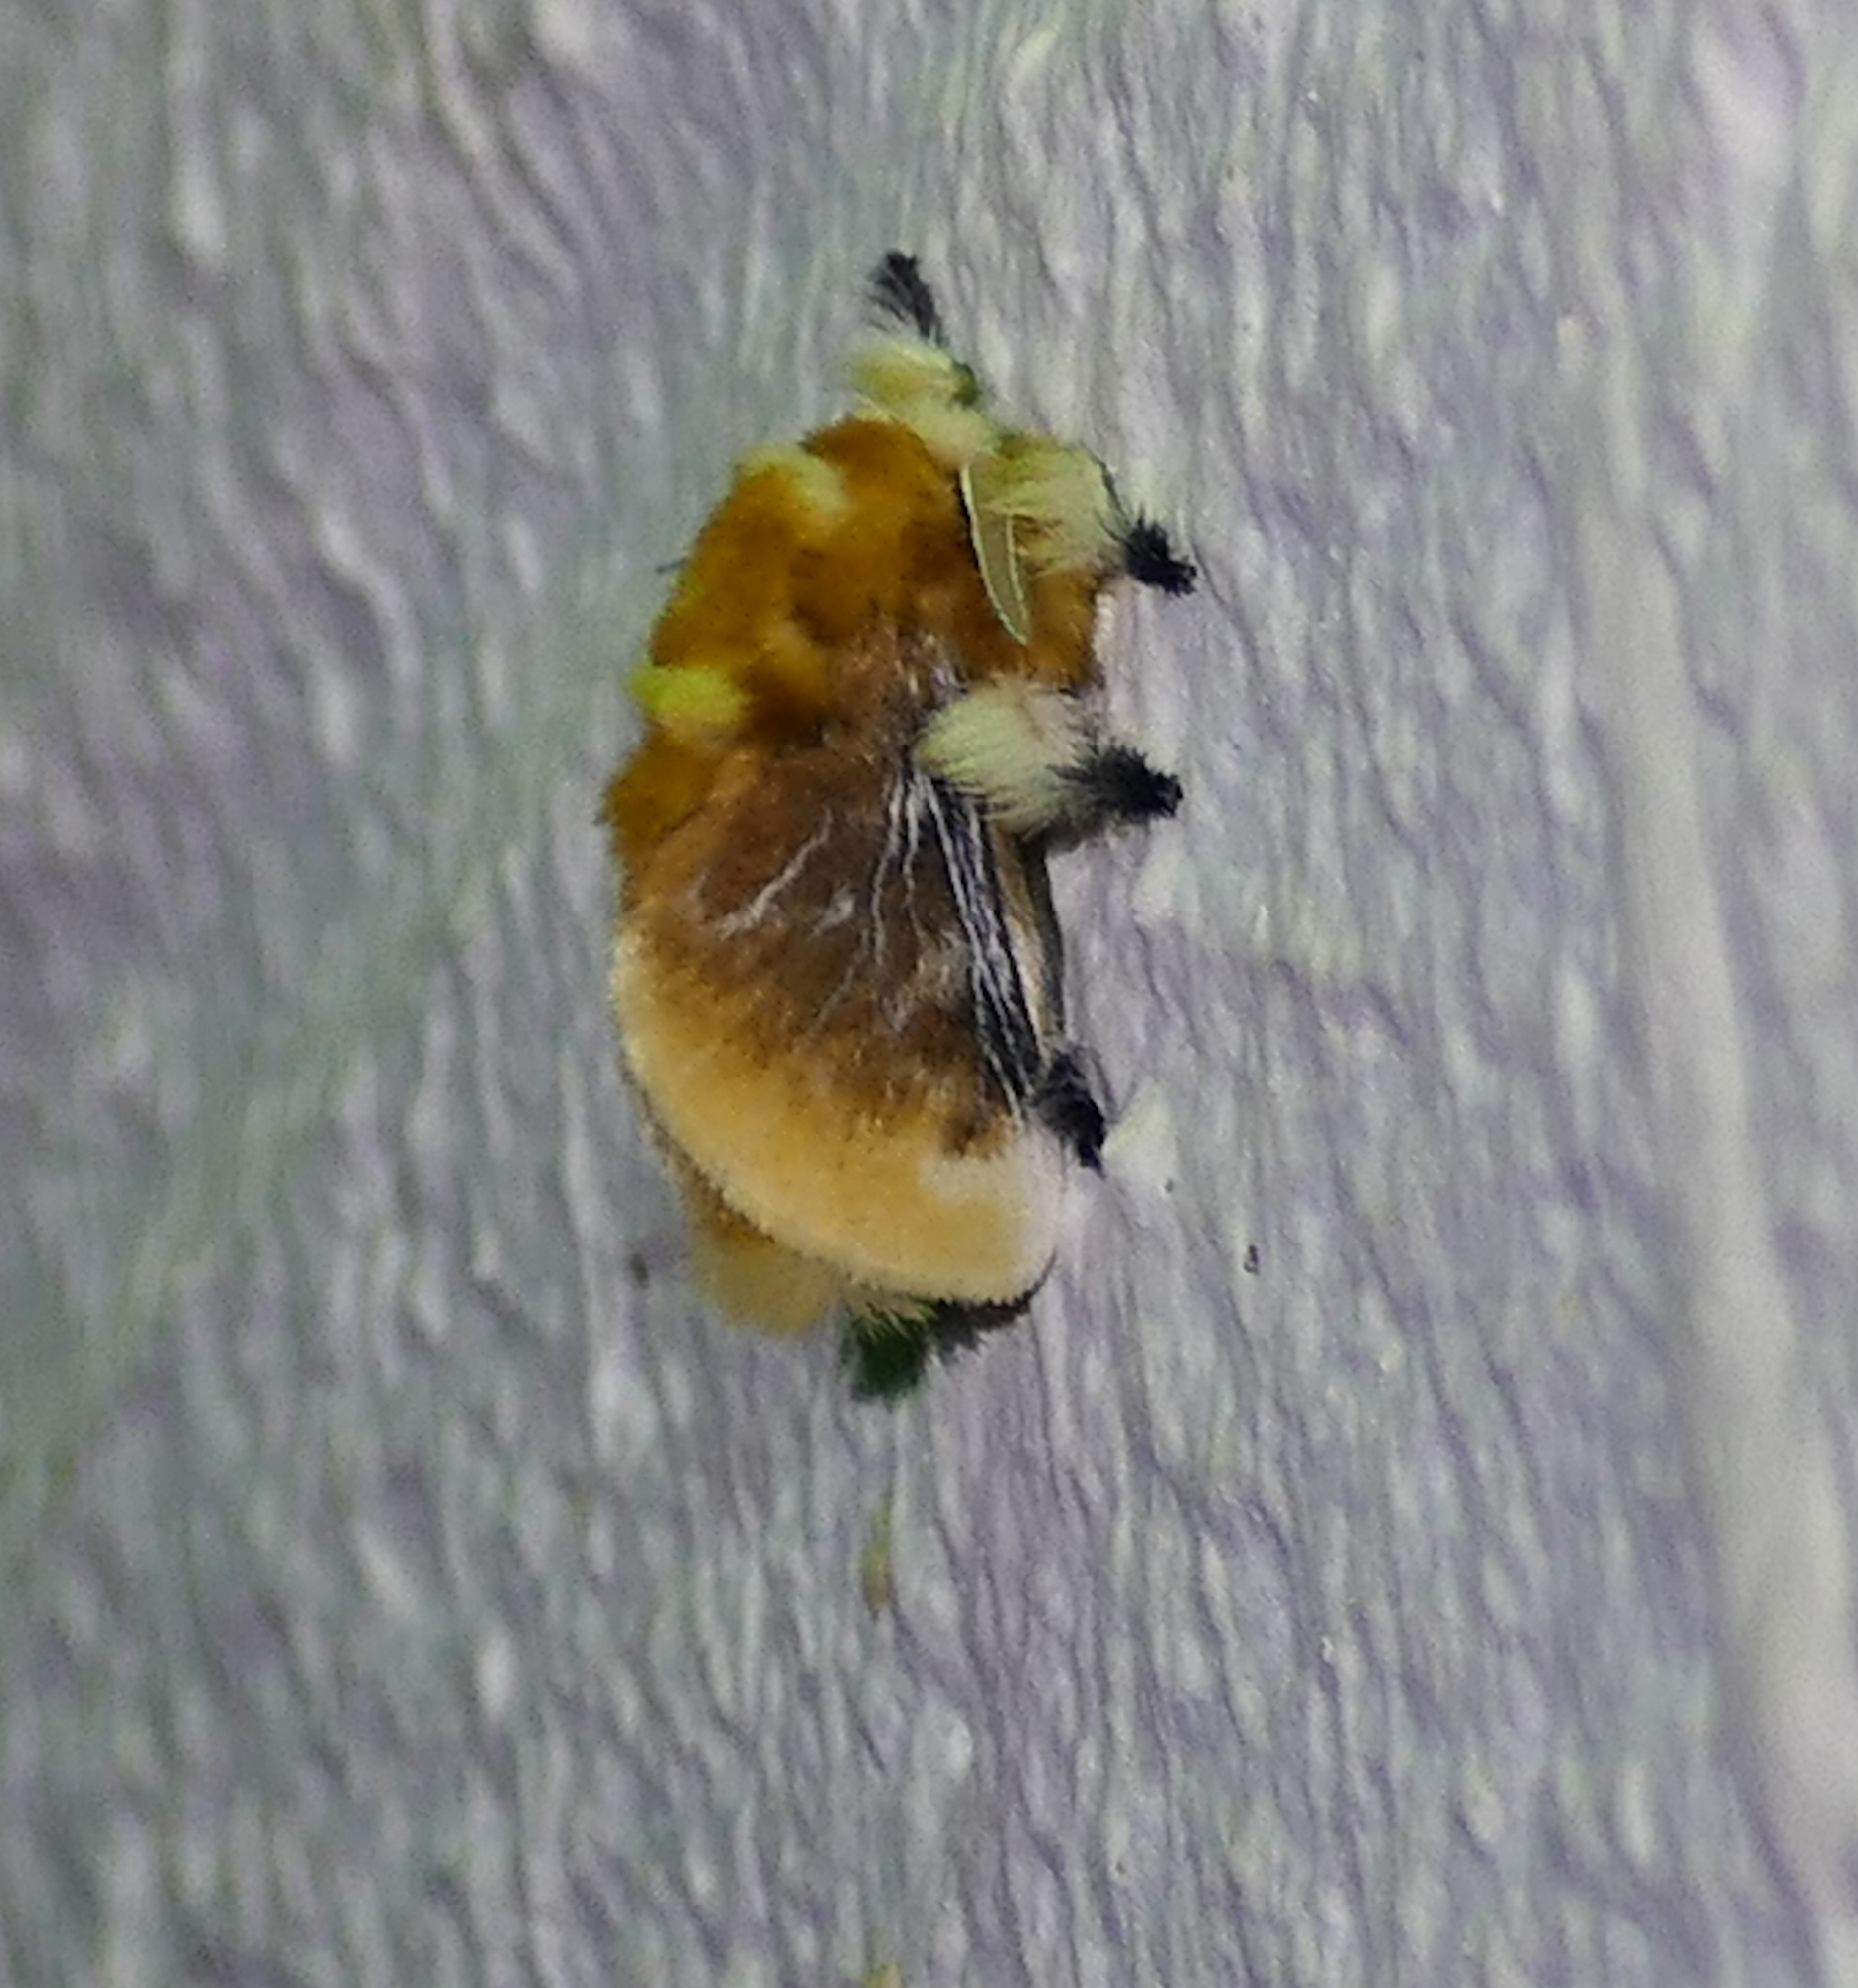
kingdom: Animalia
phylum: Arthropoda
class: Insecta
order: Lepidoptera
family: Megalopygidae
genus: Megalopyge
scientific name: Megalopyge opercularis
